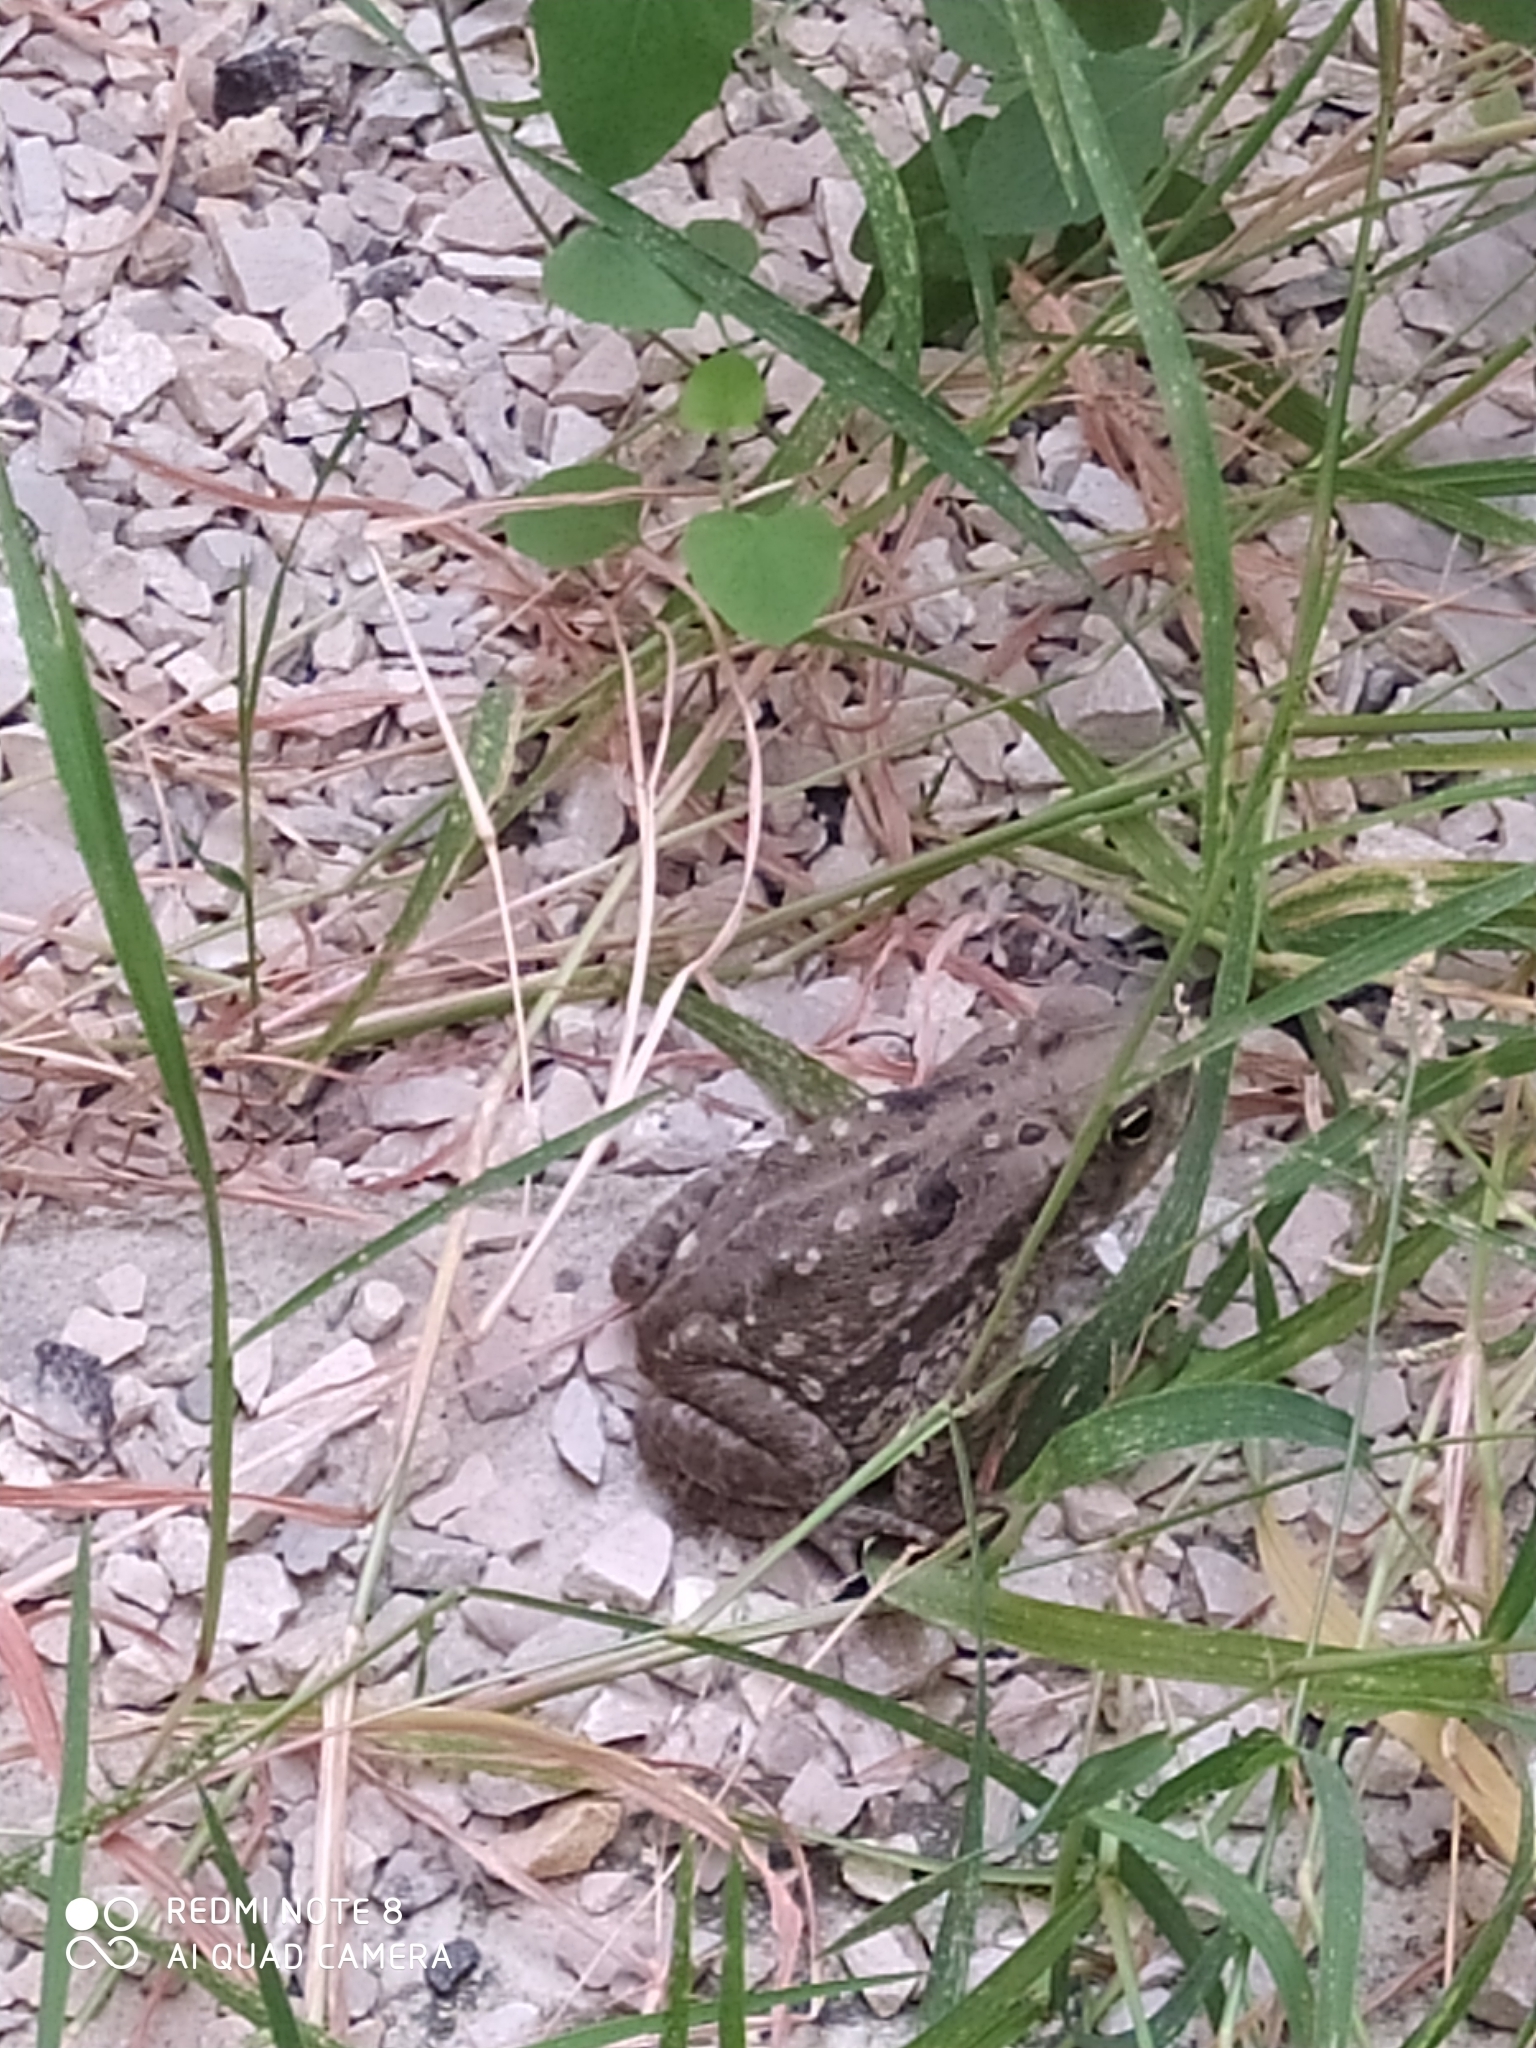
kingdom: Animalia
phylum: Chordata
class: Amphibia
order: Anura
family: Bufonidae
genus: Rhinella
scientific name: Rhinella
